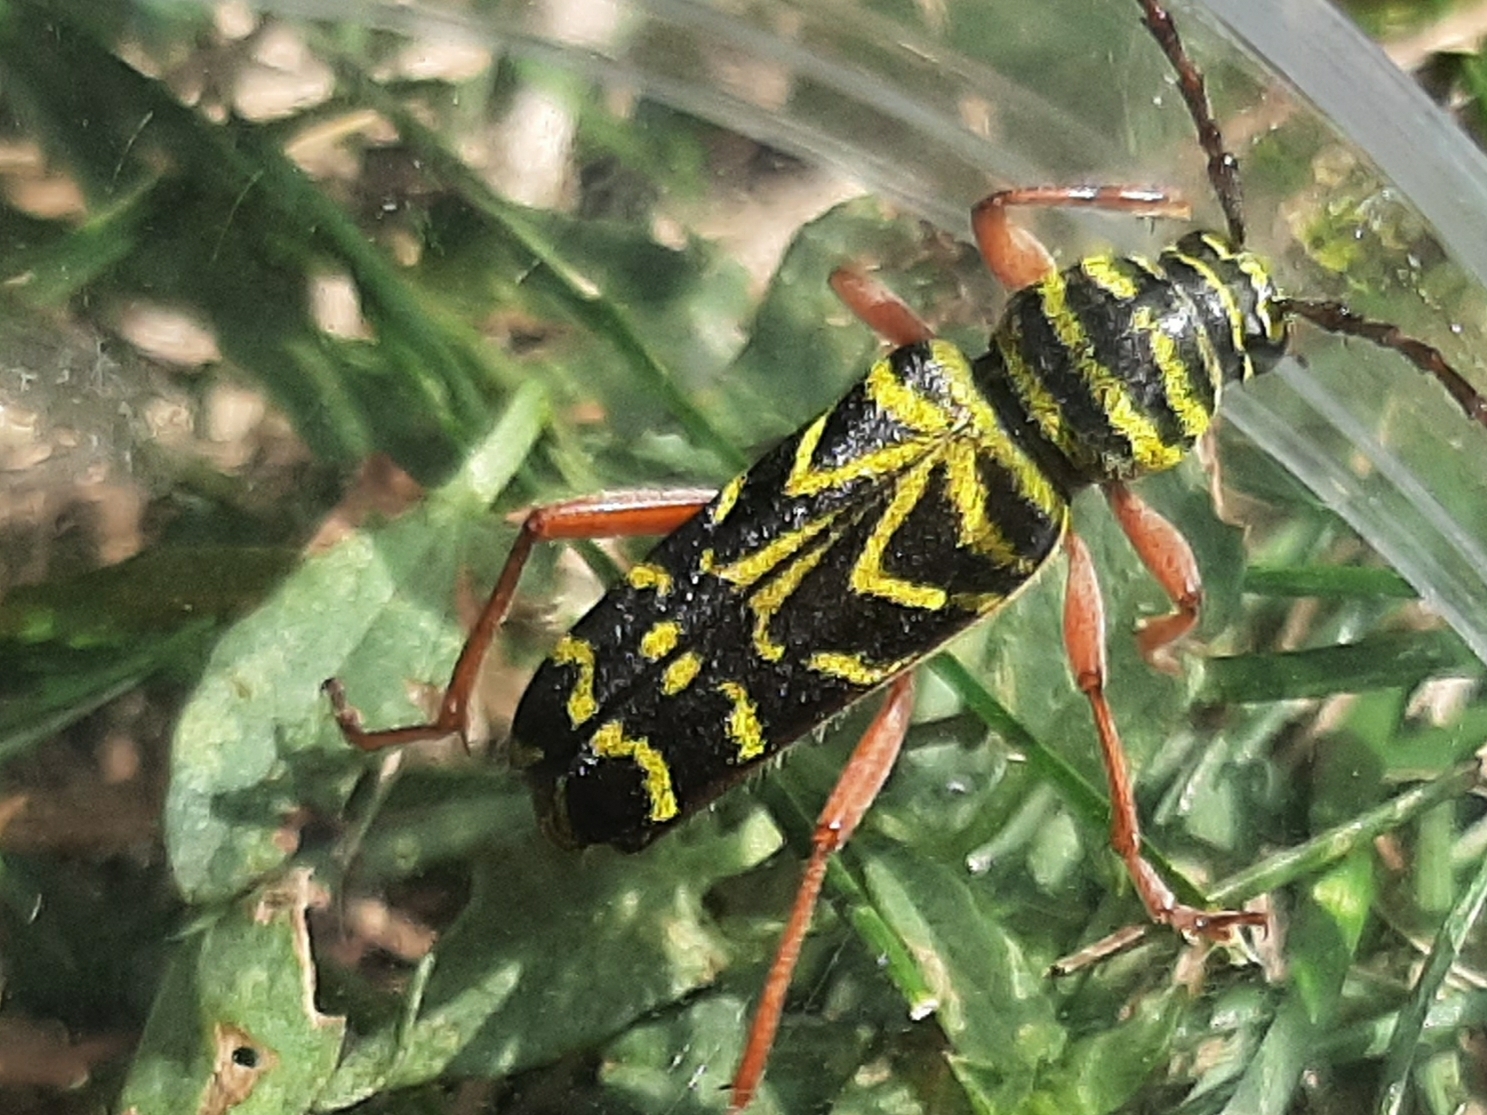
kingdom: Animalia
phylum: Arthropoda
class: Insecta
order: Coleoptera
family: Cerambycidae
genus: Megacyllene
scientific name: Megacyllene robiniae
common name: Locust borer
